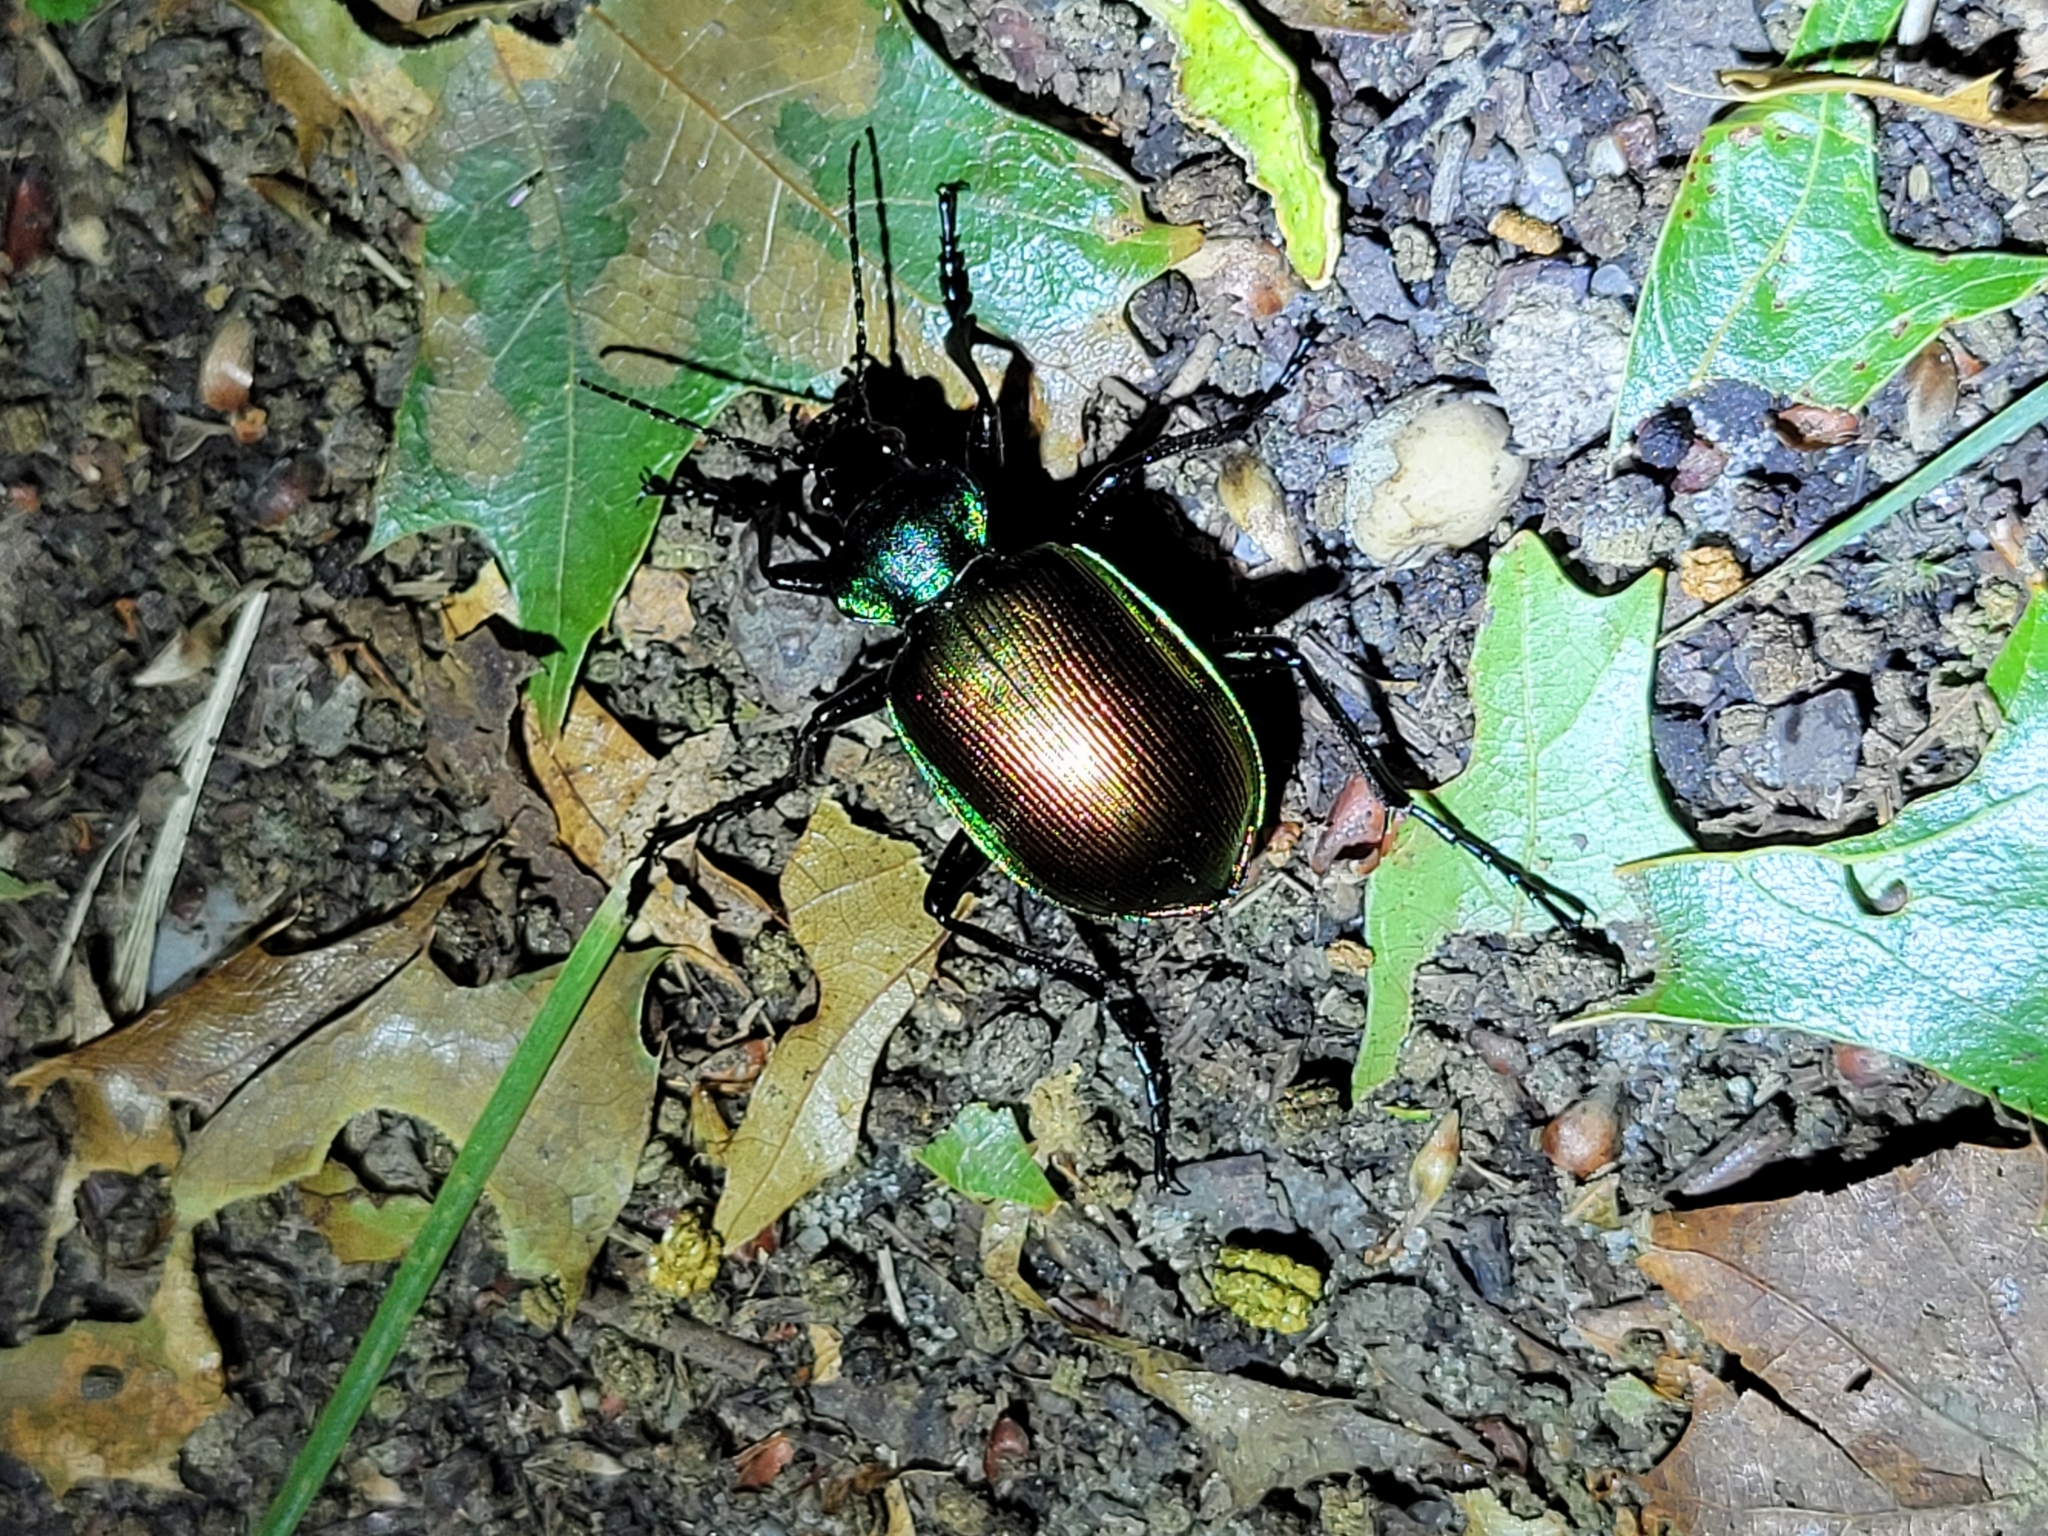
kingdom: Animalia
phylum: Arthropoda
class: Insecta
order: Coleoptera
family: Carabidae
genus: Calosoma
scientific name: Calosoma sycophanta
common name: Forest caterpillar hunter
